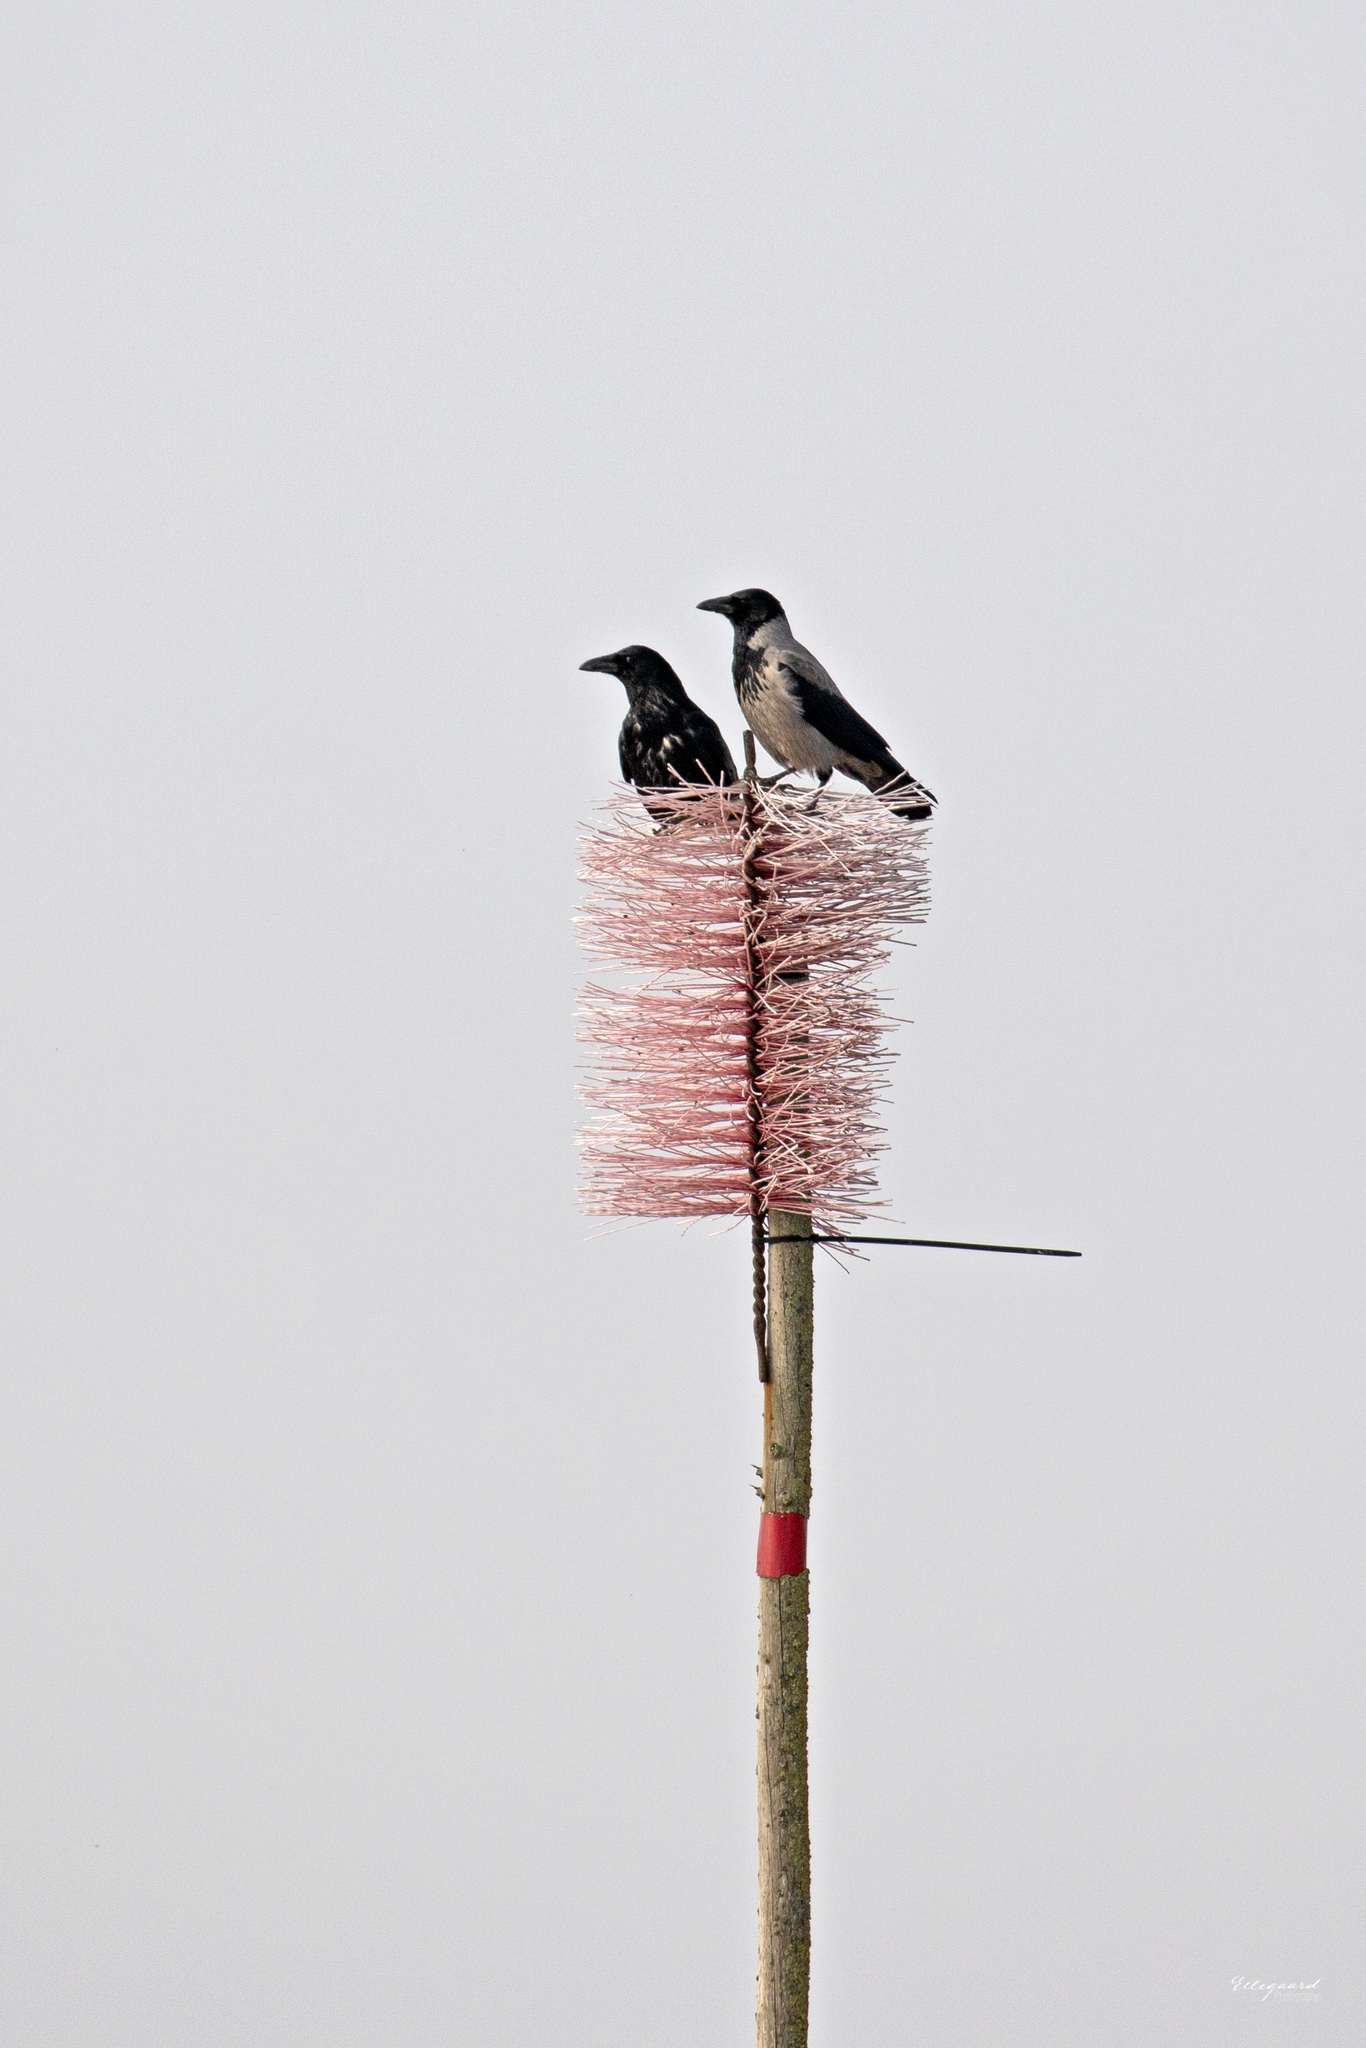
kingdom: Animalia
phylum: Chordata
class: Aves
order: Passeriformes
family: Corvidae
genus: Corvus
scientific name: Corvus cornix
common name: Hooded crow
